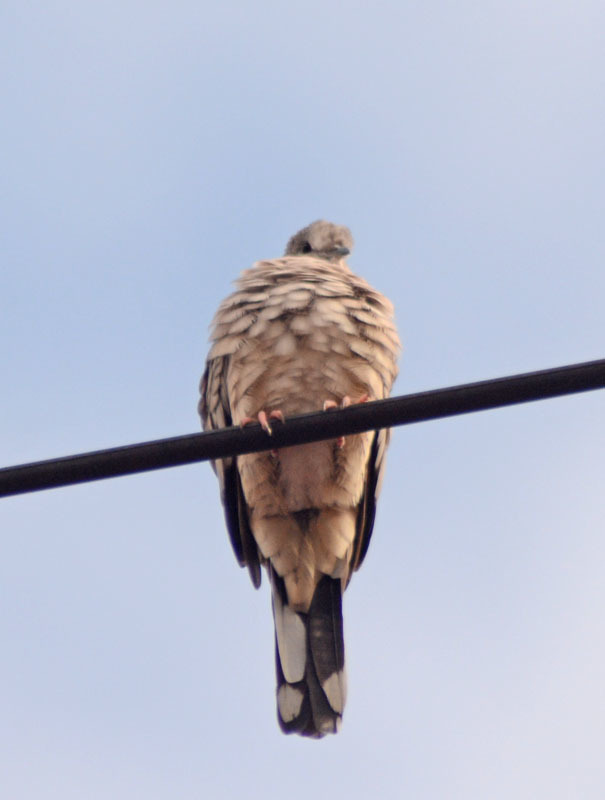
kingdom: Animalia
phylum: Chordata
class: Aves
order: Columbiformes
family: Columbidae
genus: Columbina
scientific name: Columbina inca
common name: Inca dove
